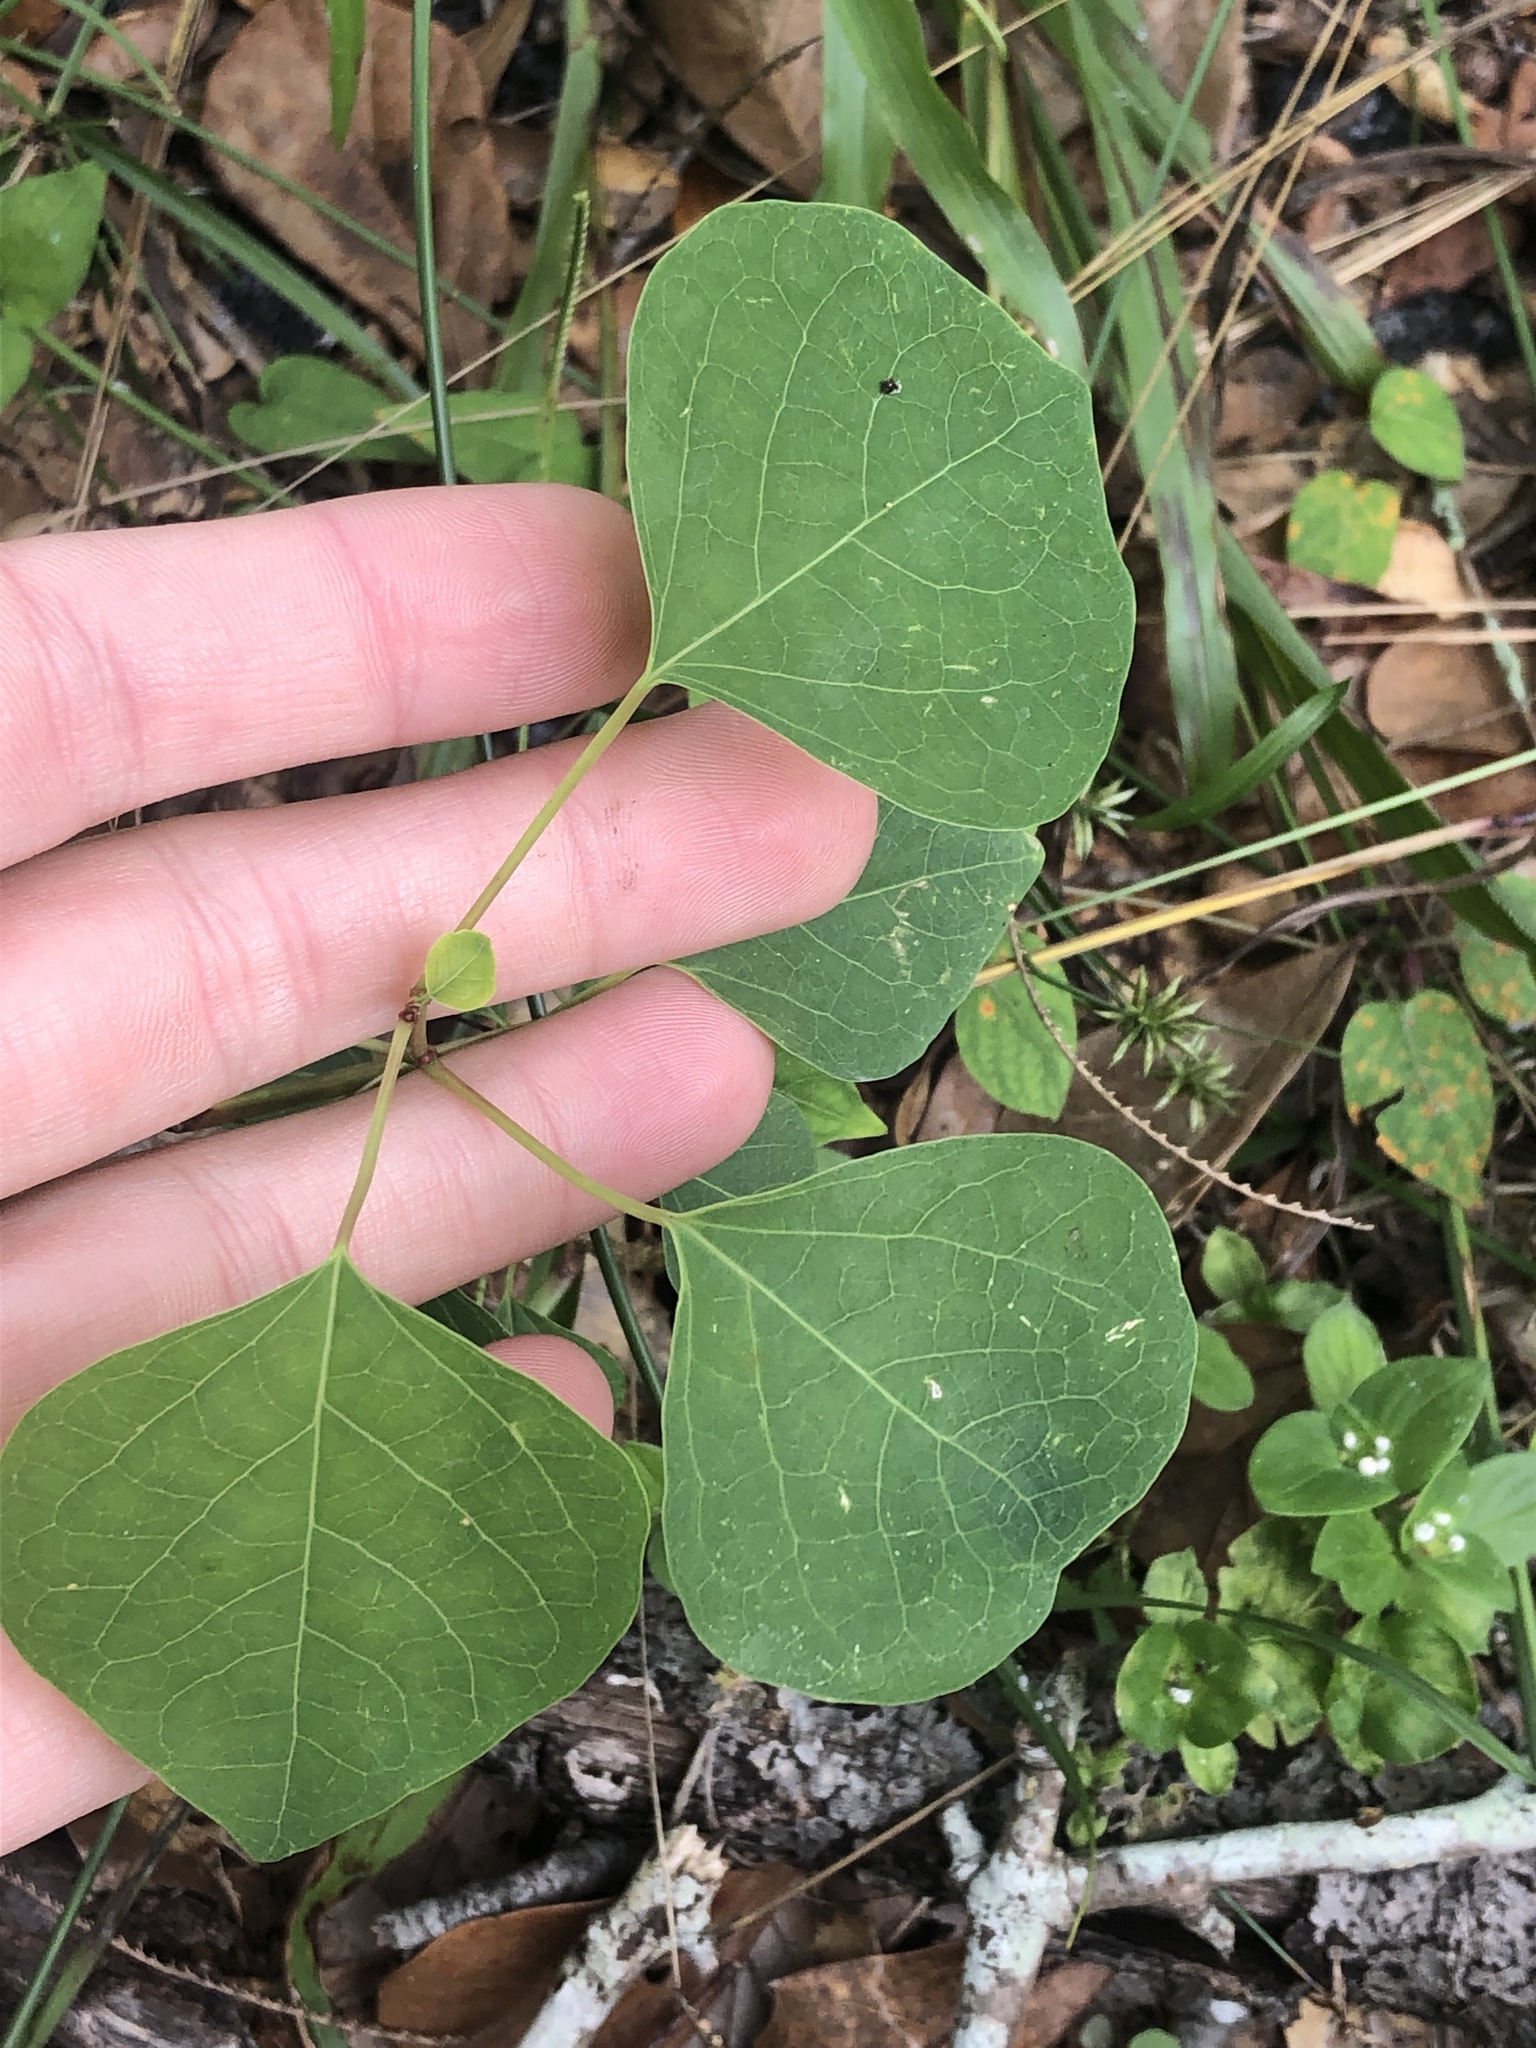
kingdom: Plantae
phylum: Tracheophyta
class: Magnoliopsida
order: Malpighiales
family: Euphorbiaceae
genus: Triadica
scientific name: Triadica sebifera
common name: Chinese tallow
